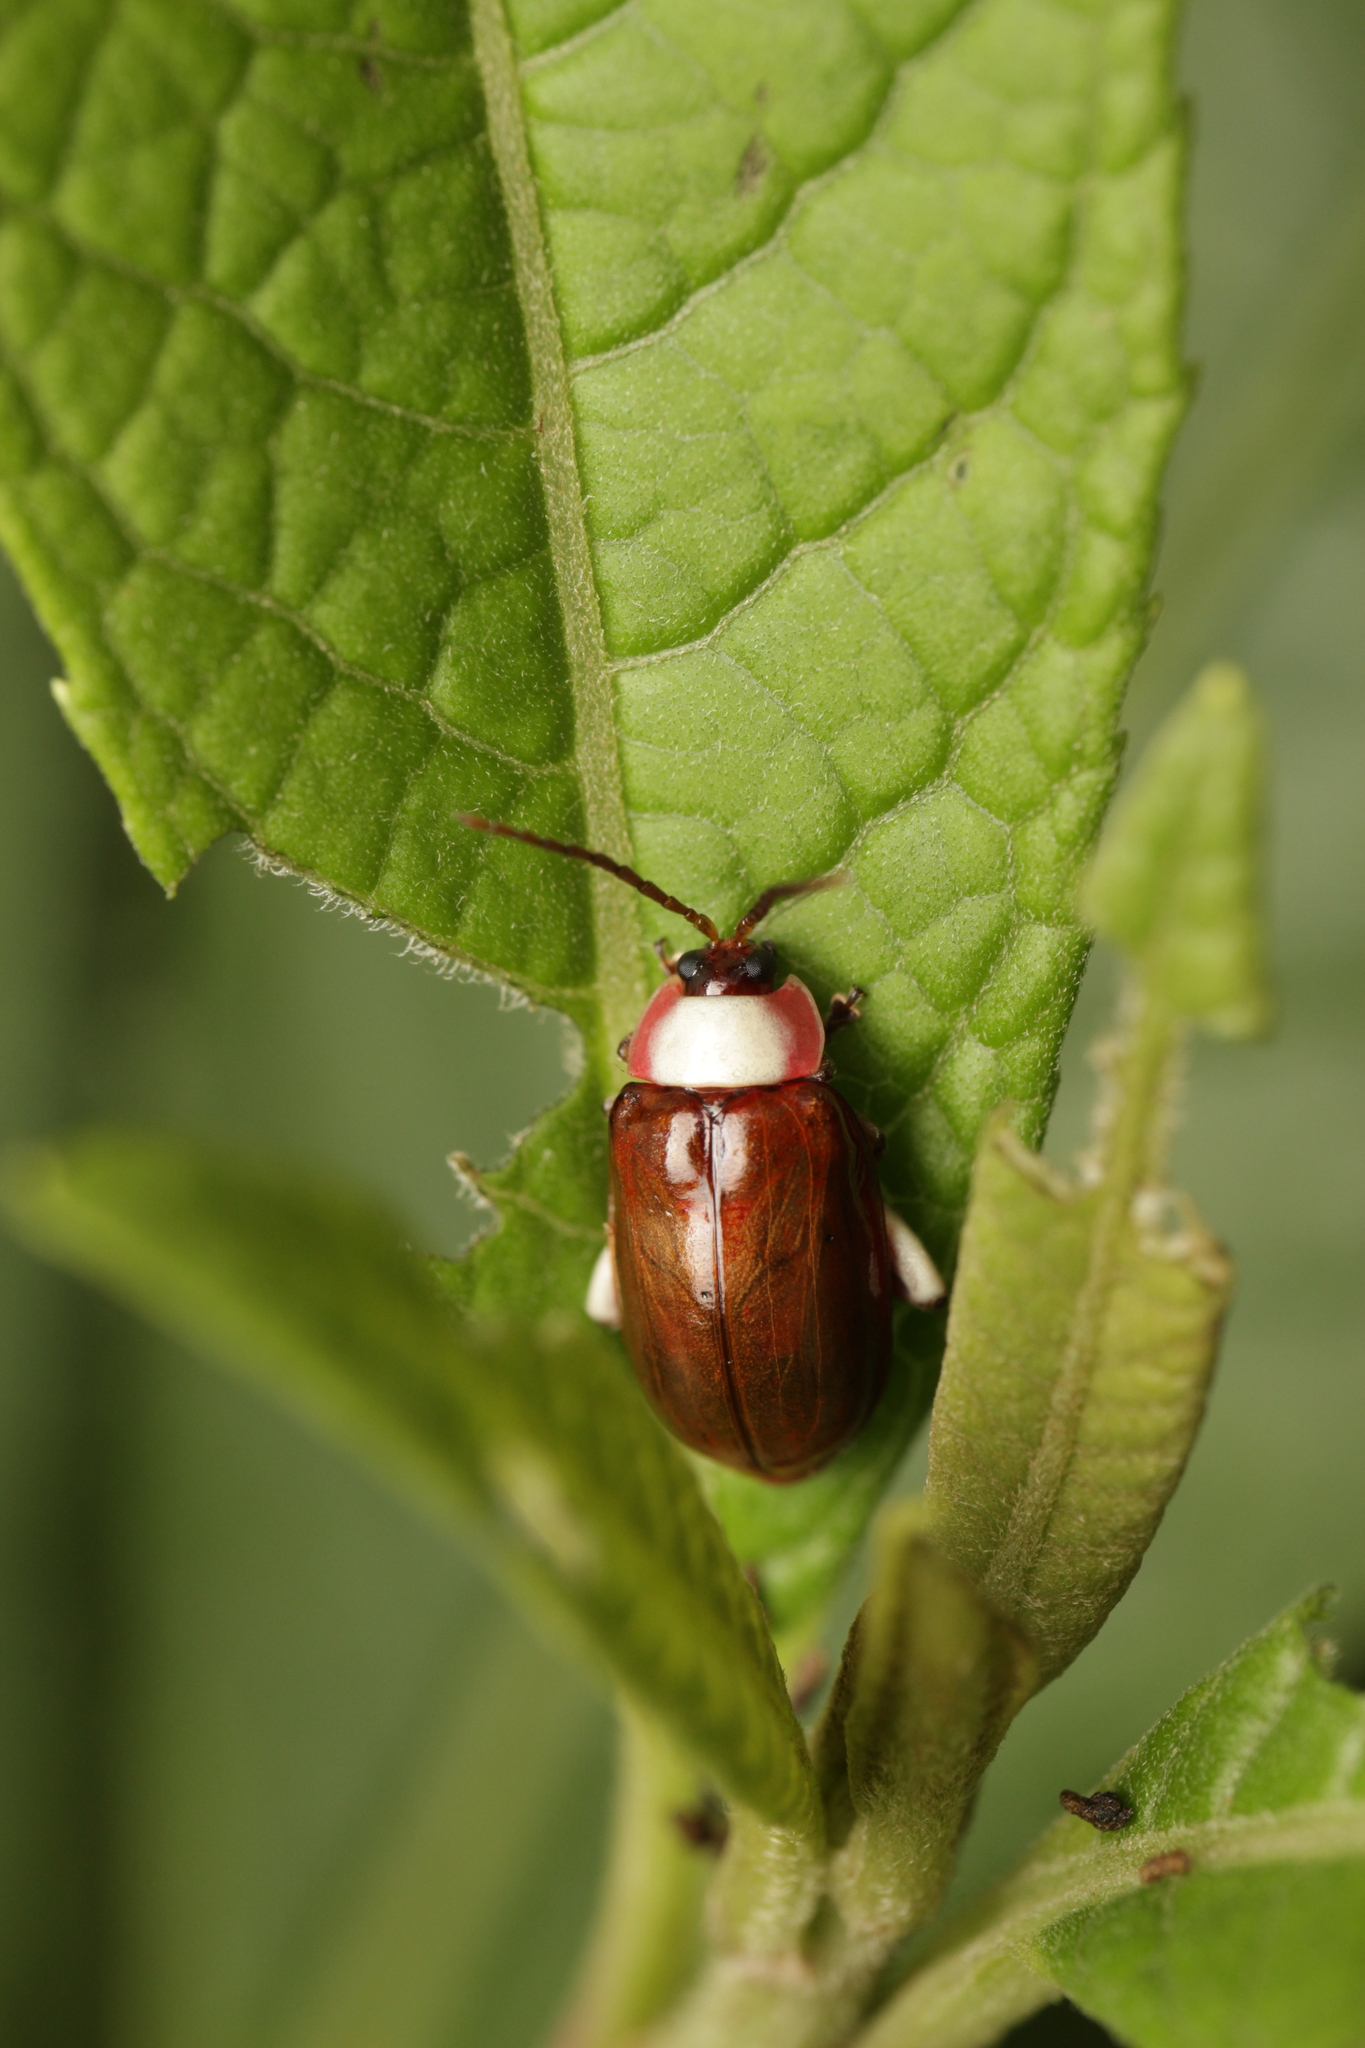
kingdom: Animalia
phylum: Arthropoda
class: Insecta
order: Coleoptera
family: Chrysomelidae
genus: Asphaera
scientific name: Asphaera
